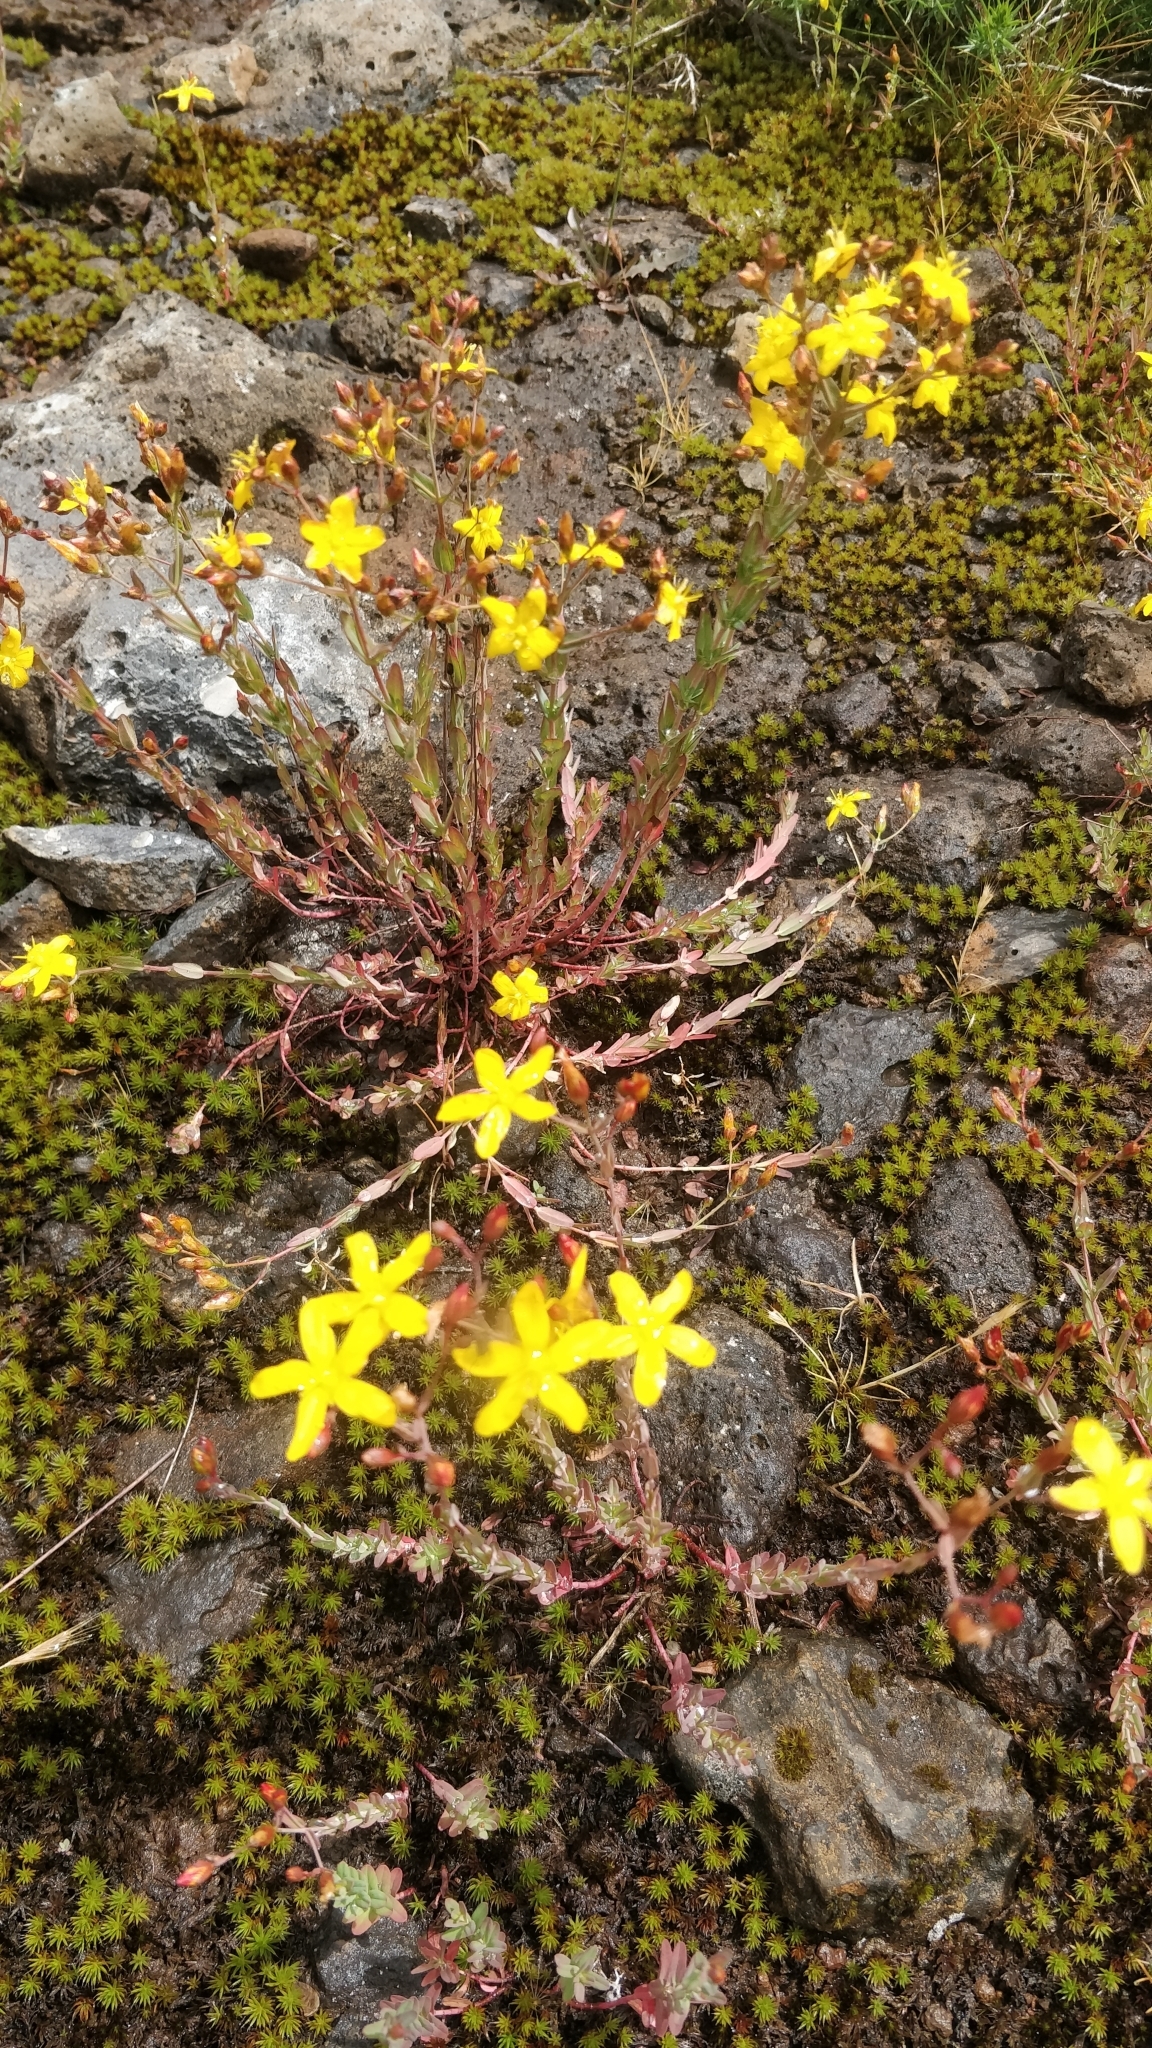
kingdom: Plantae
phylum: Tracheophyta
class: Magnoliopsida
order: Malpighiales
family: Hypericaceae
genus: Hypericum
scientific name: Hypericum linariifolium
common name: Toadflax-leaved st. john's-wort
